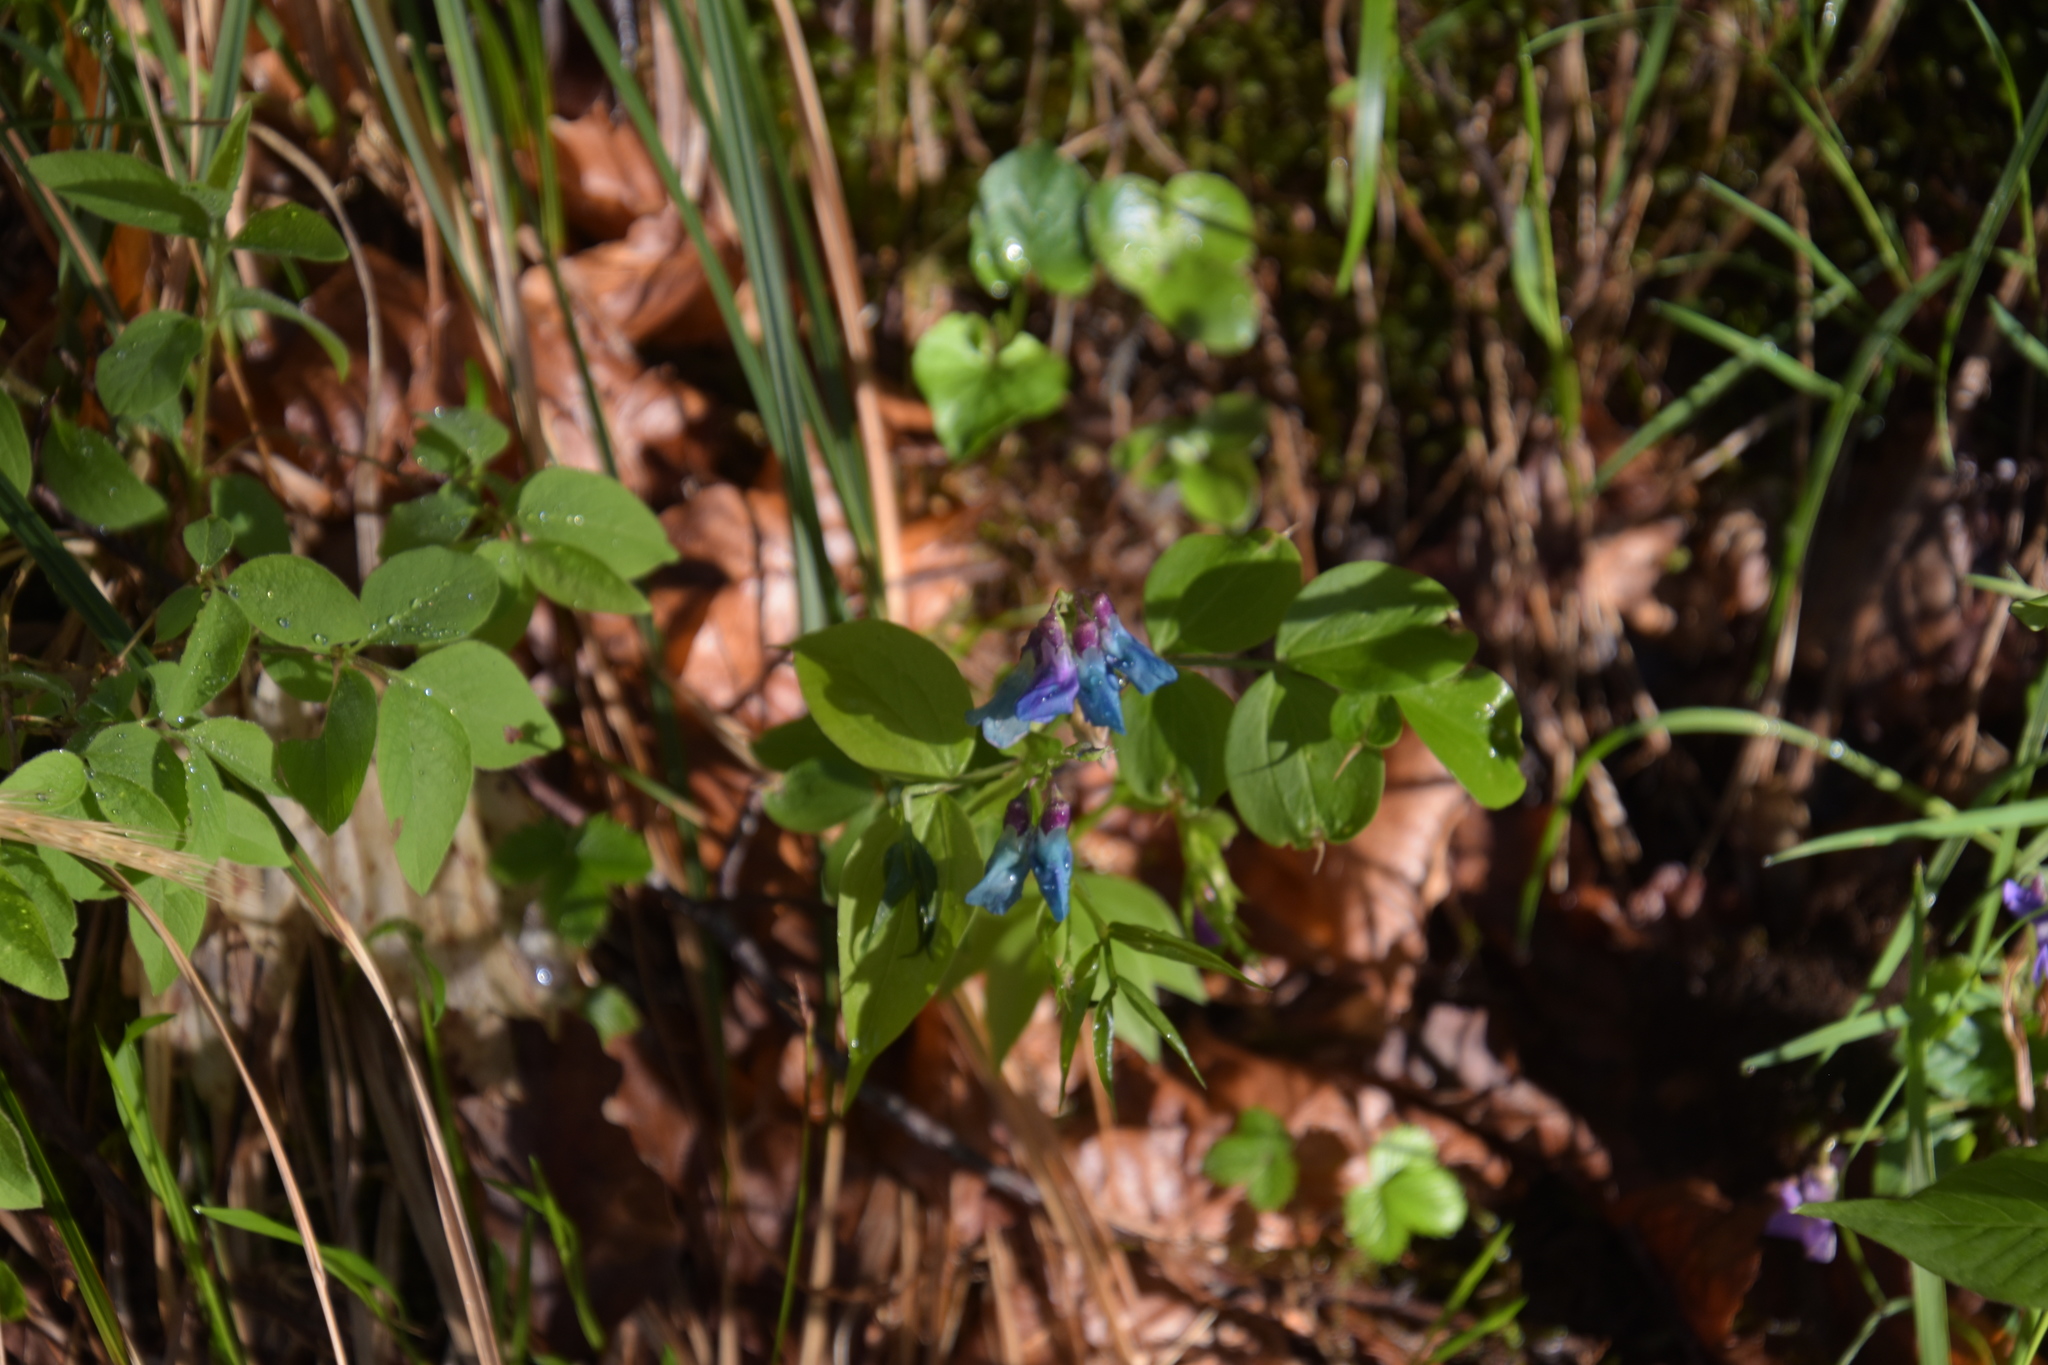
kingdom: Plantae
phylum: Tracheophyta
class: Magnoliopsida
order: Fabales
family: Fabaceae
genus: Lathyrus
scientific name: Lathyrus vernus
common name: Spring pea
